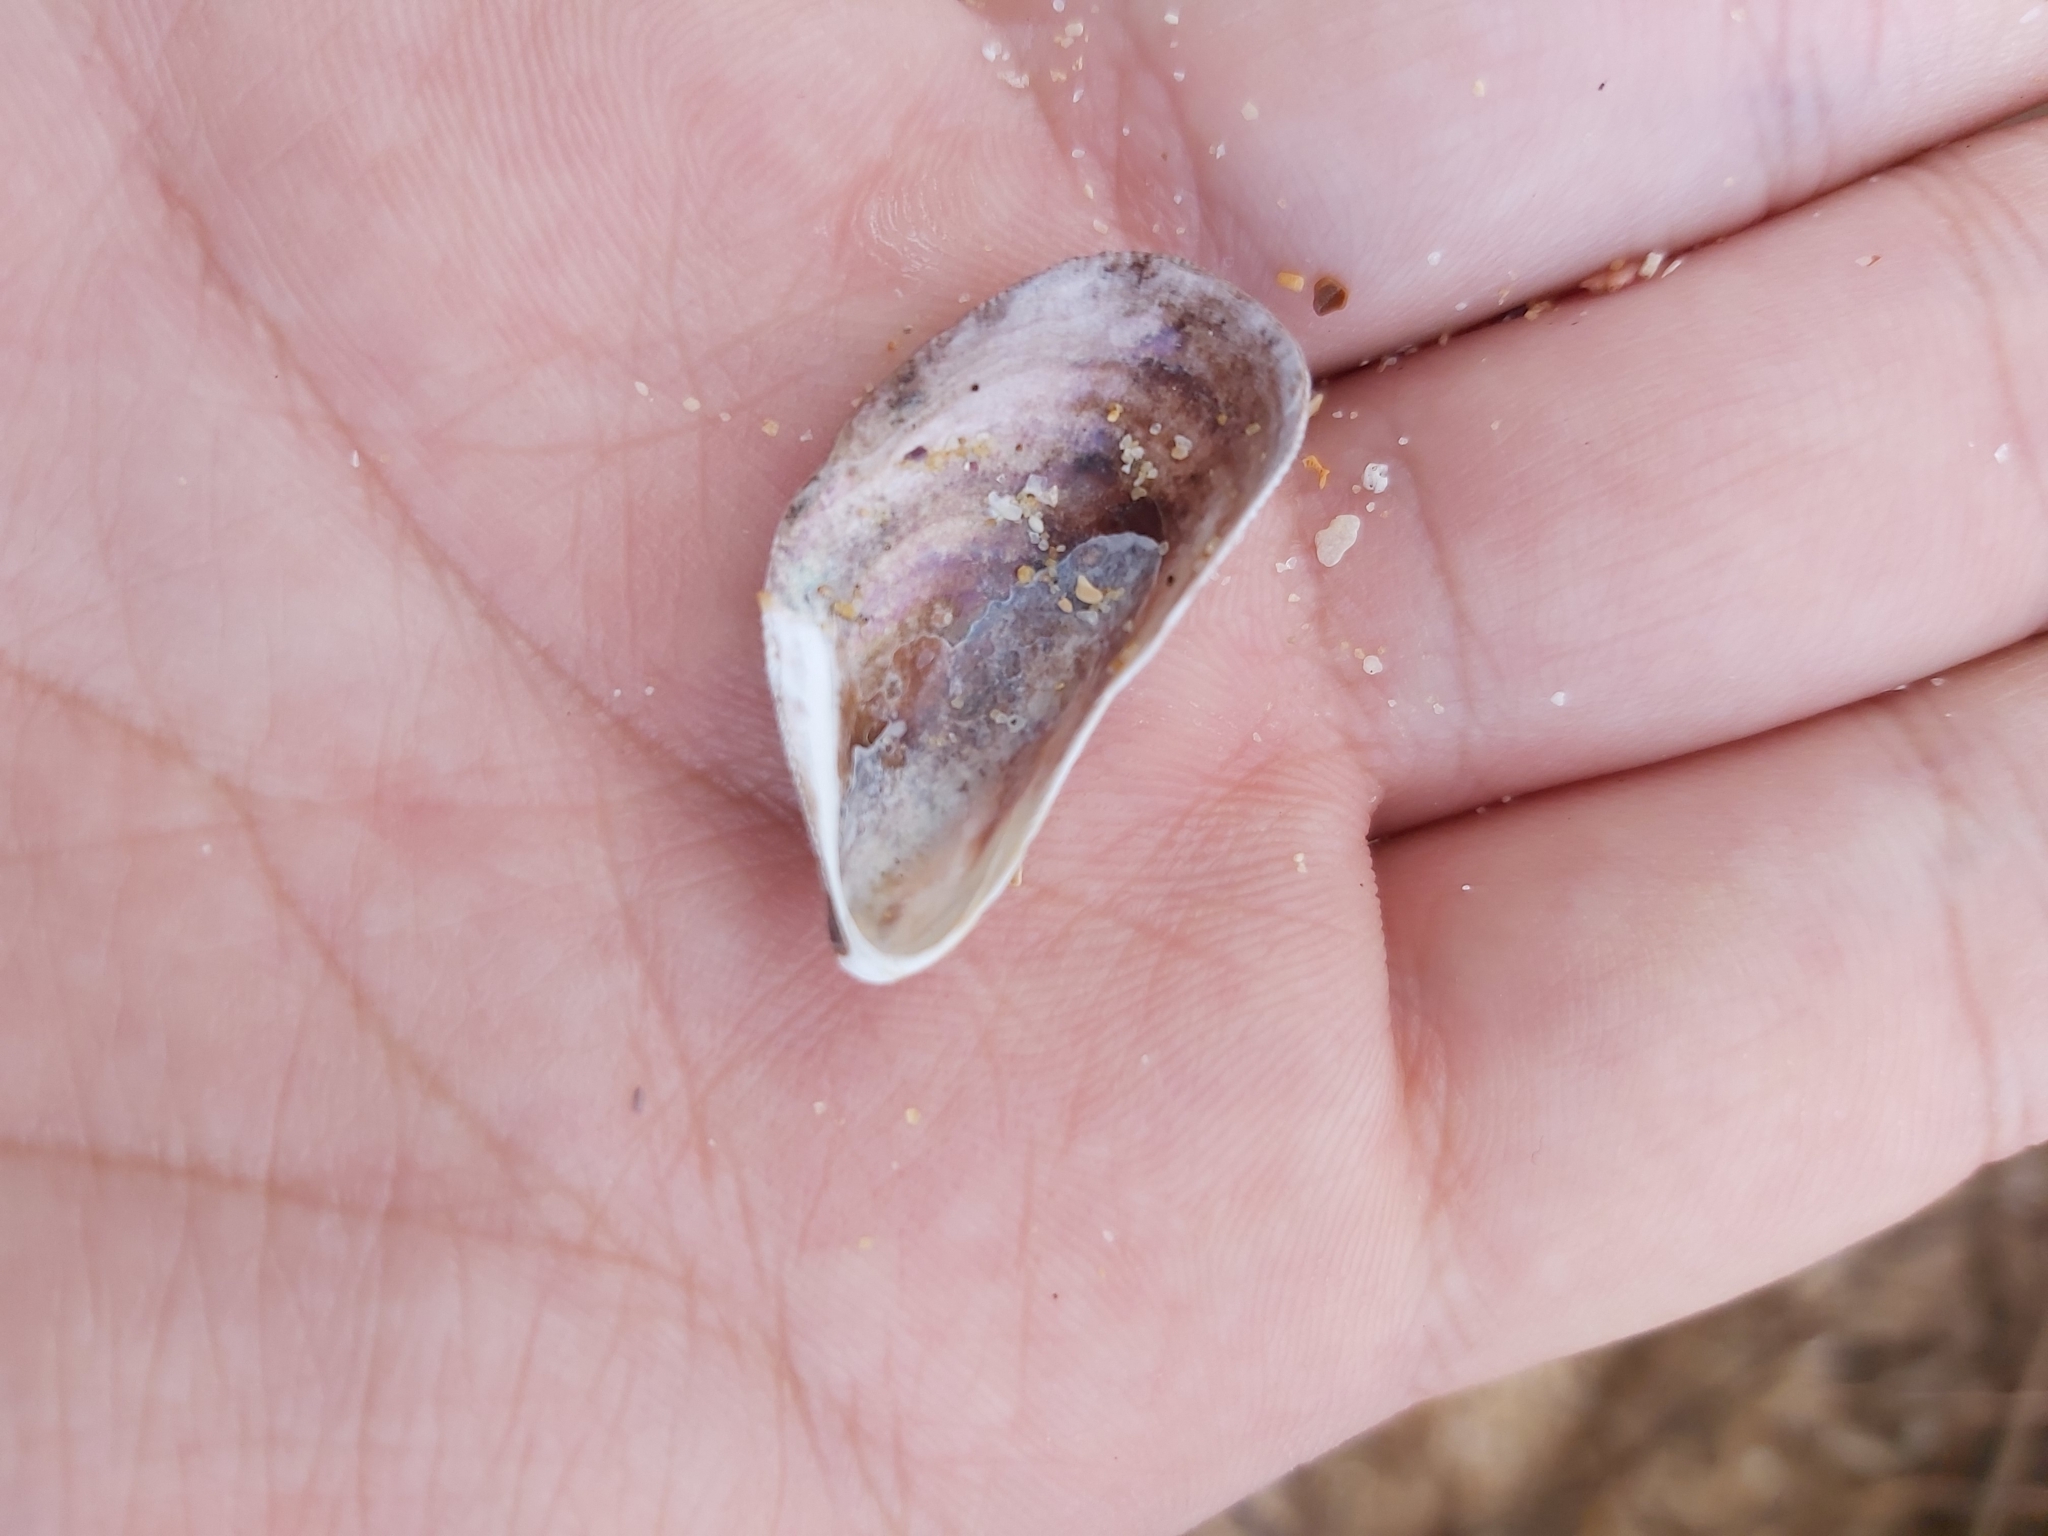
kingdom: Animalia
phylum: Mollusca
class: Bivalvia
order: Mytilida
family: Mytilidae
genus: Trichomya
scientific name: Trichomya hirsuta
